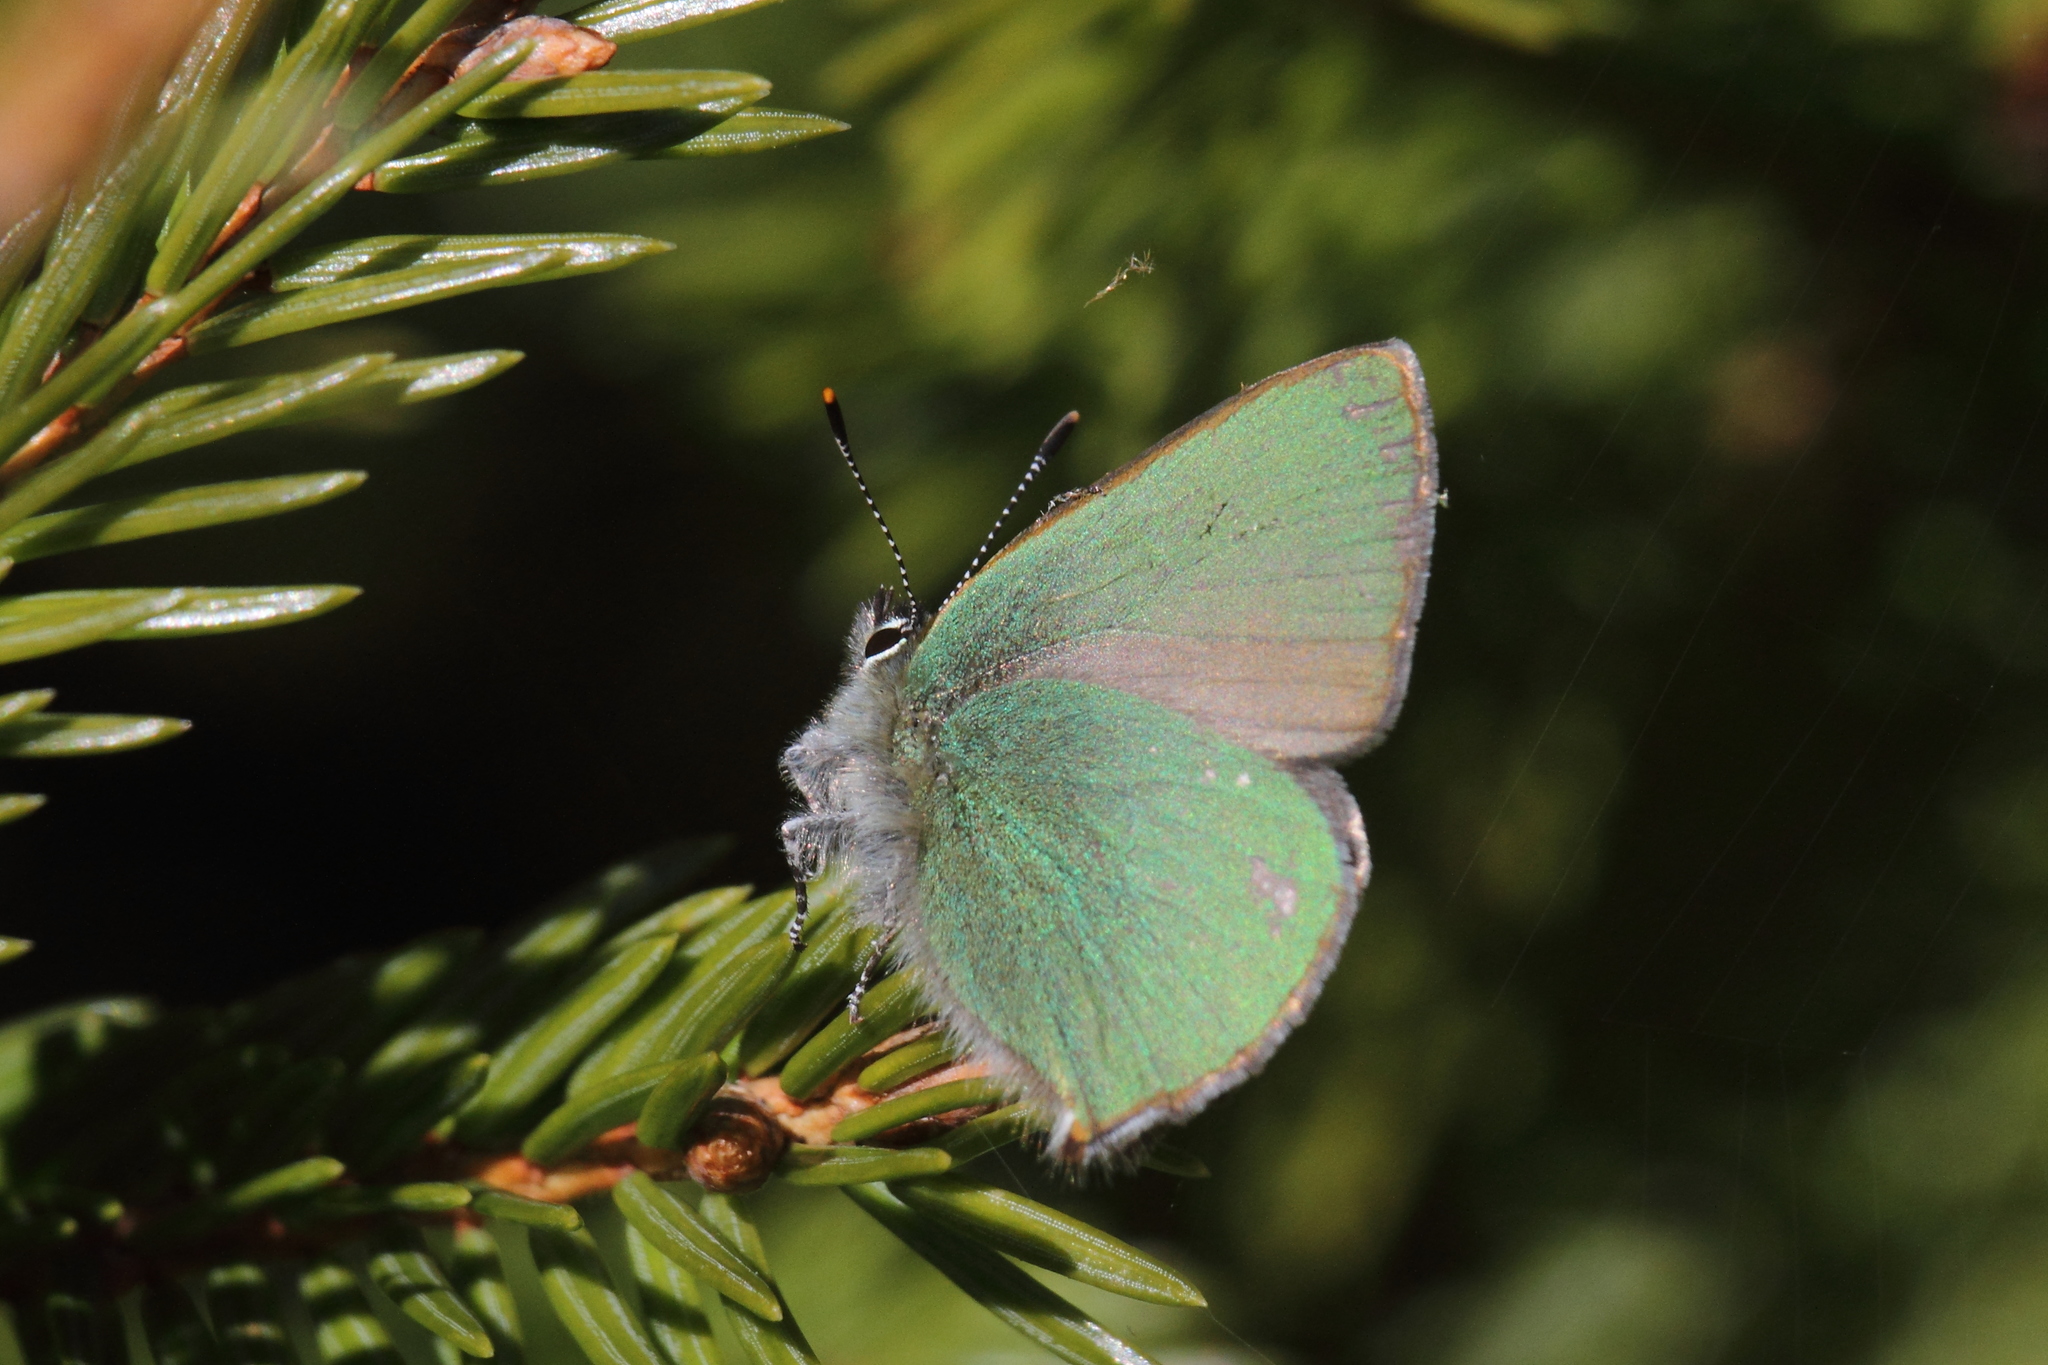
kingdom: Animalia
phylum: Arthropoda
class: Insecta
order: Lepidoptera
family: Lycaenidae
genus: Callophrys
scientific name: Callophrys rubi
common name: Green hairstreak
